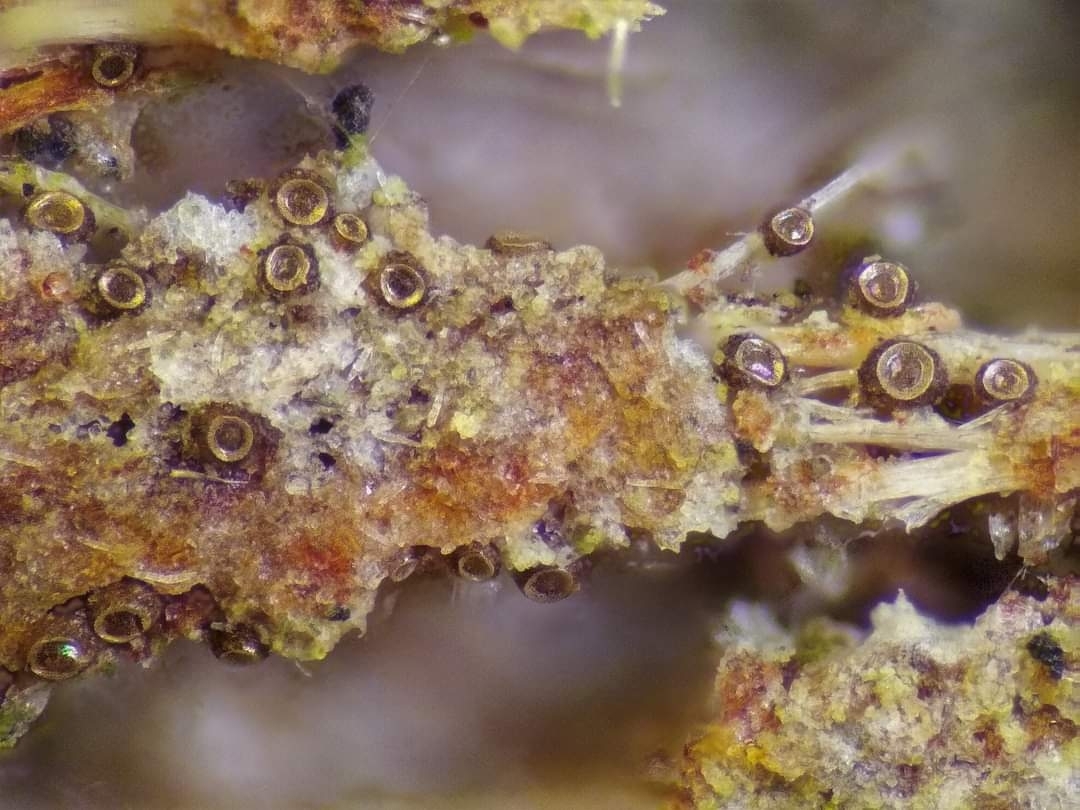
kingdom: Protozoa
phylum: Mycetozoa
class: Myxomycetes
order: Cribrariales
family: Liceaceae
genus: Licea
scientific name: Licea kleistobolus
